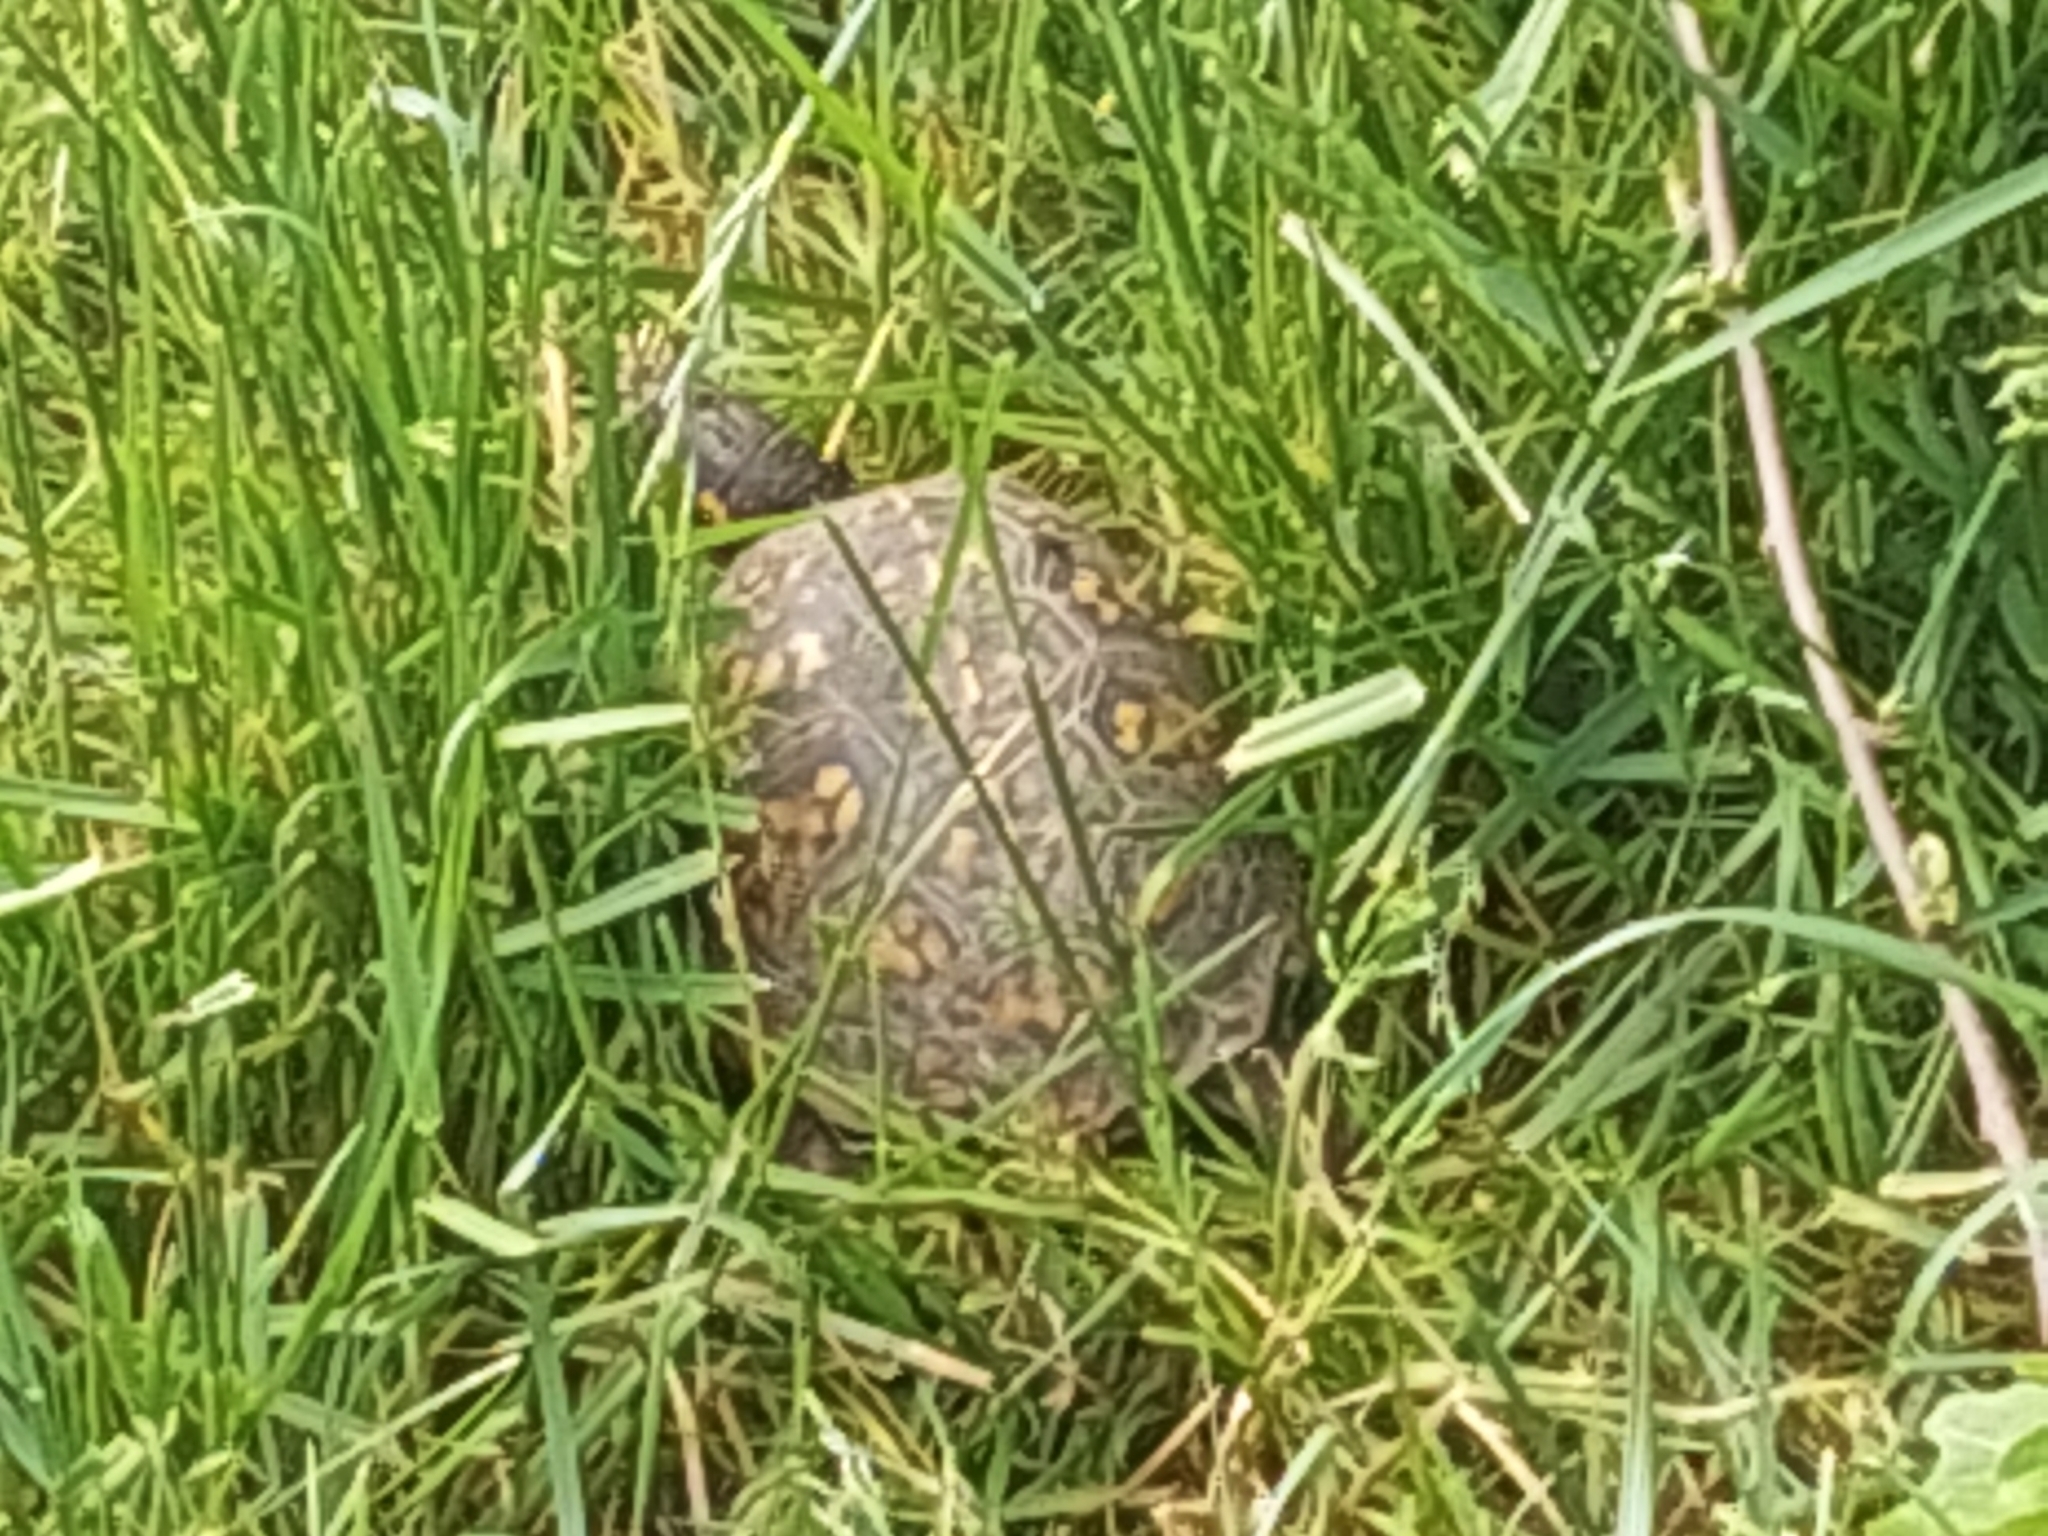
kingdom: Animalia
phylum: Chordata
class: Testudines
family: Emydidae
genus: Terrapene
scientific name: Terrapene carolina
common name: Common box turtle
